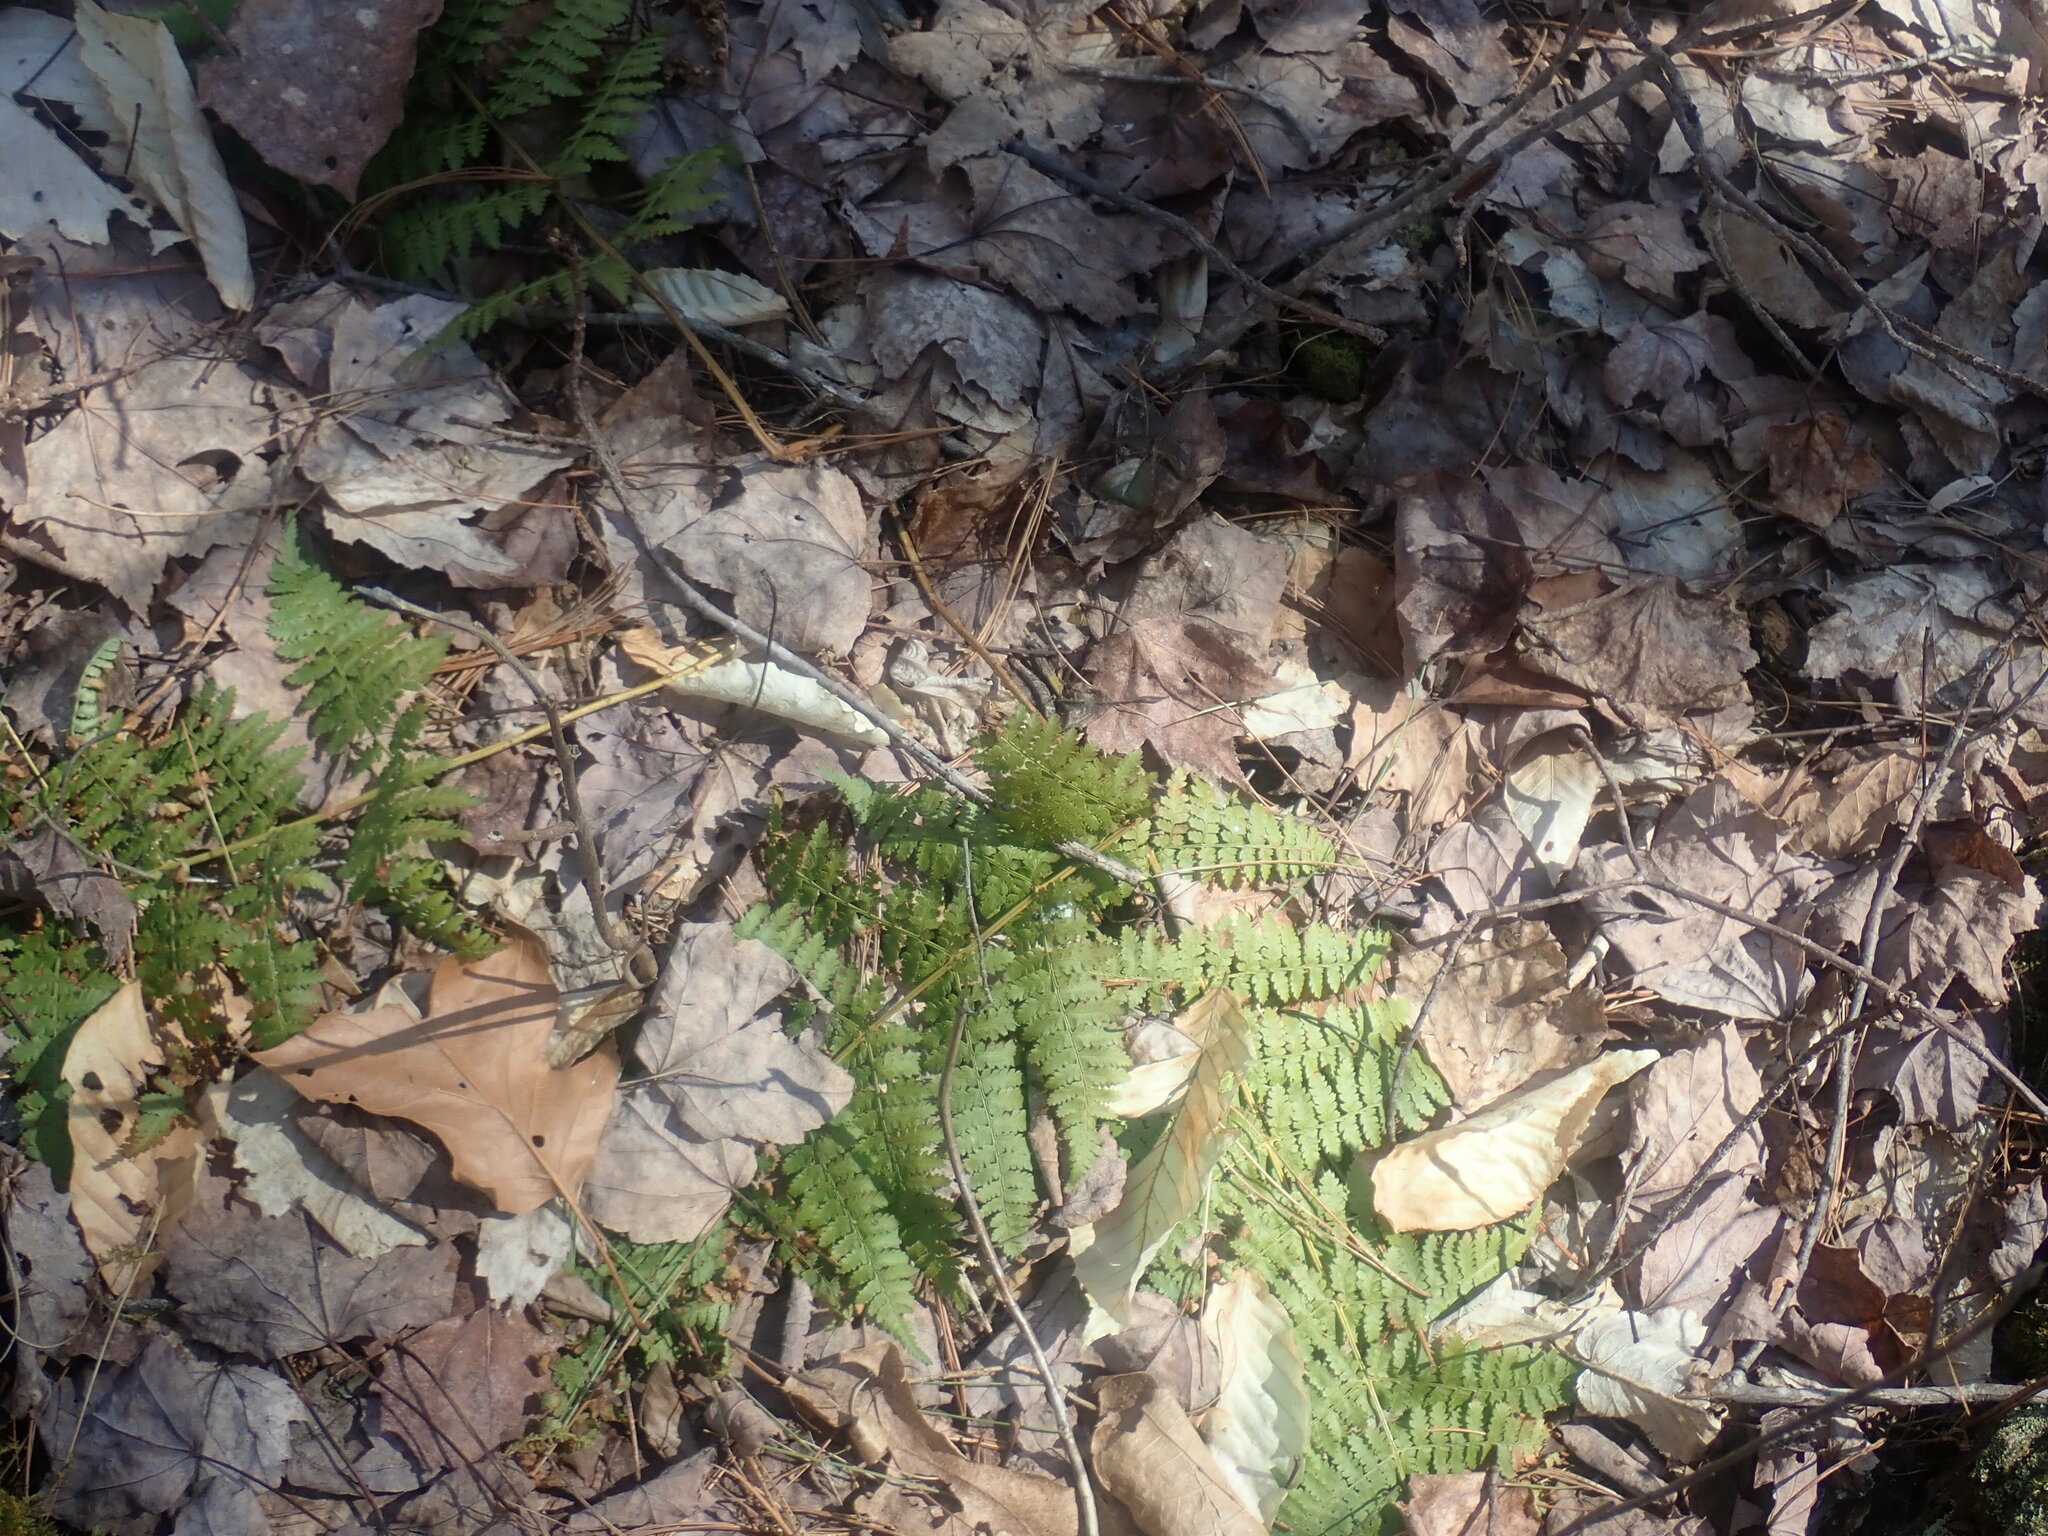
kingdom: Plantae
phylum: Tracheophyta
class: Polypodiopsida
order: Polypodiales
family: Dryopteridaceae
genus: Dryopteris
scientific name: Dryopteris intermedia
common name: Evergreen wood fern
